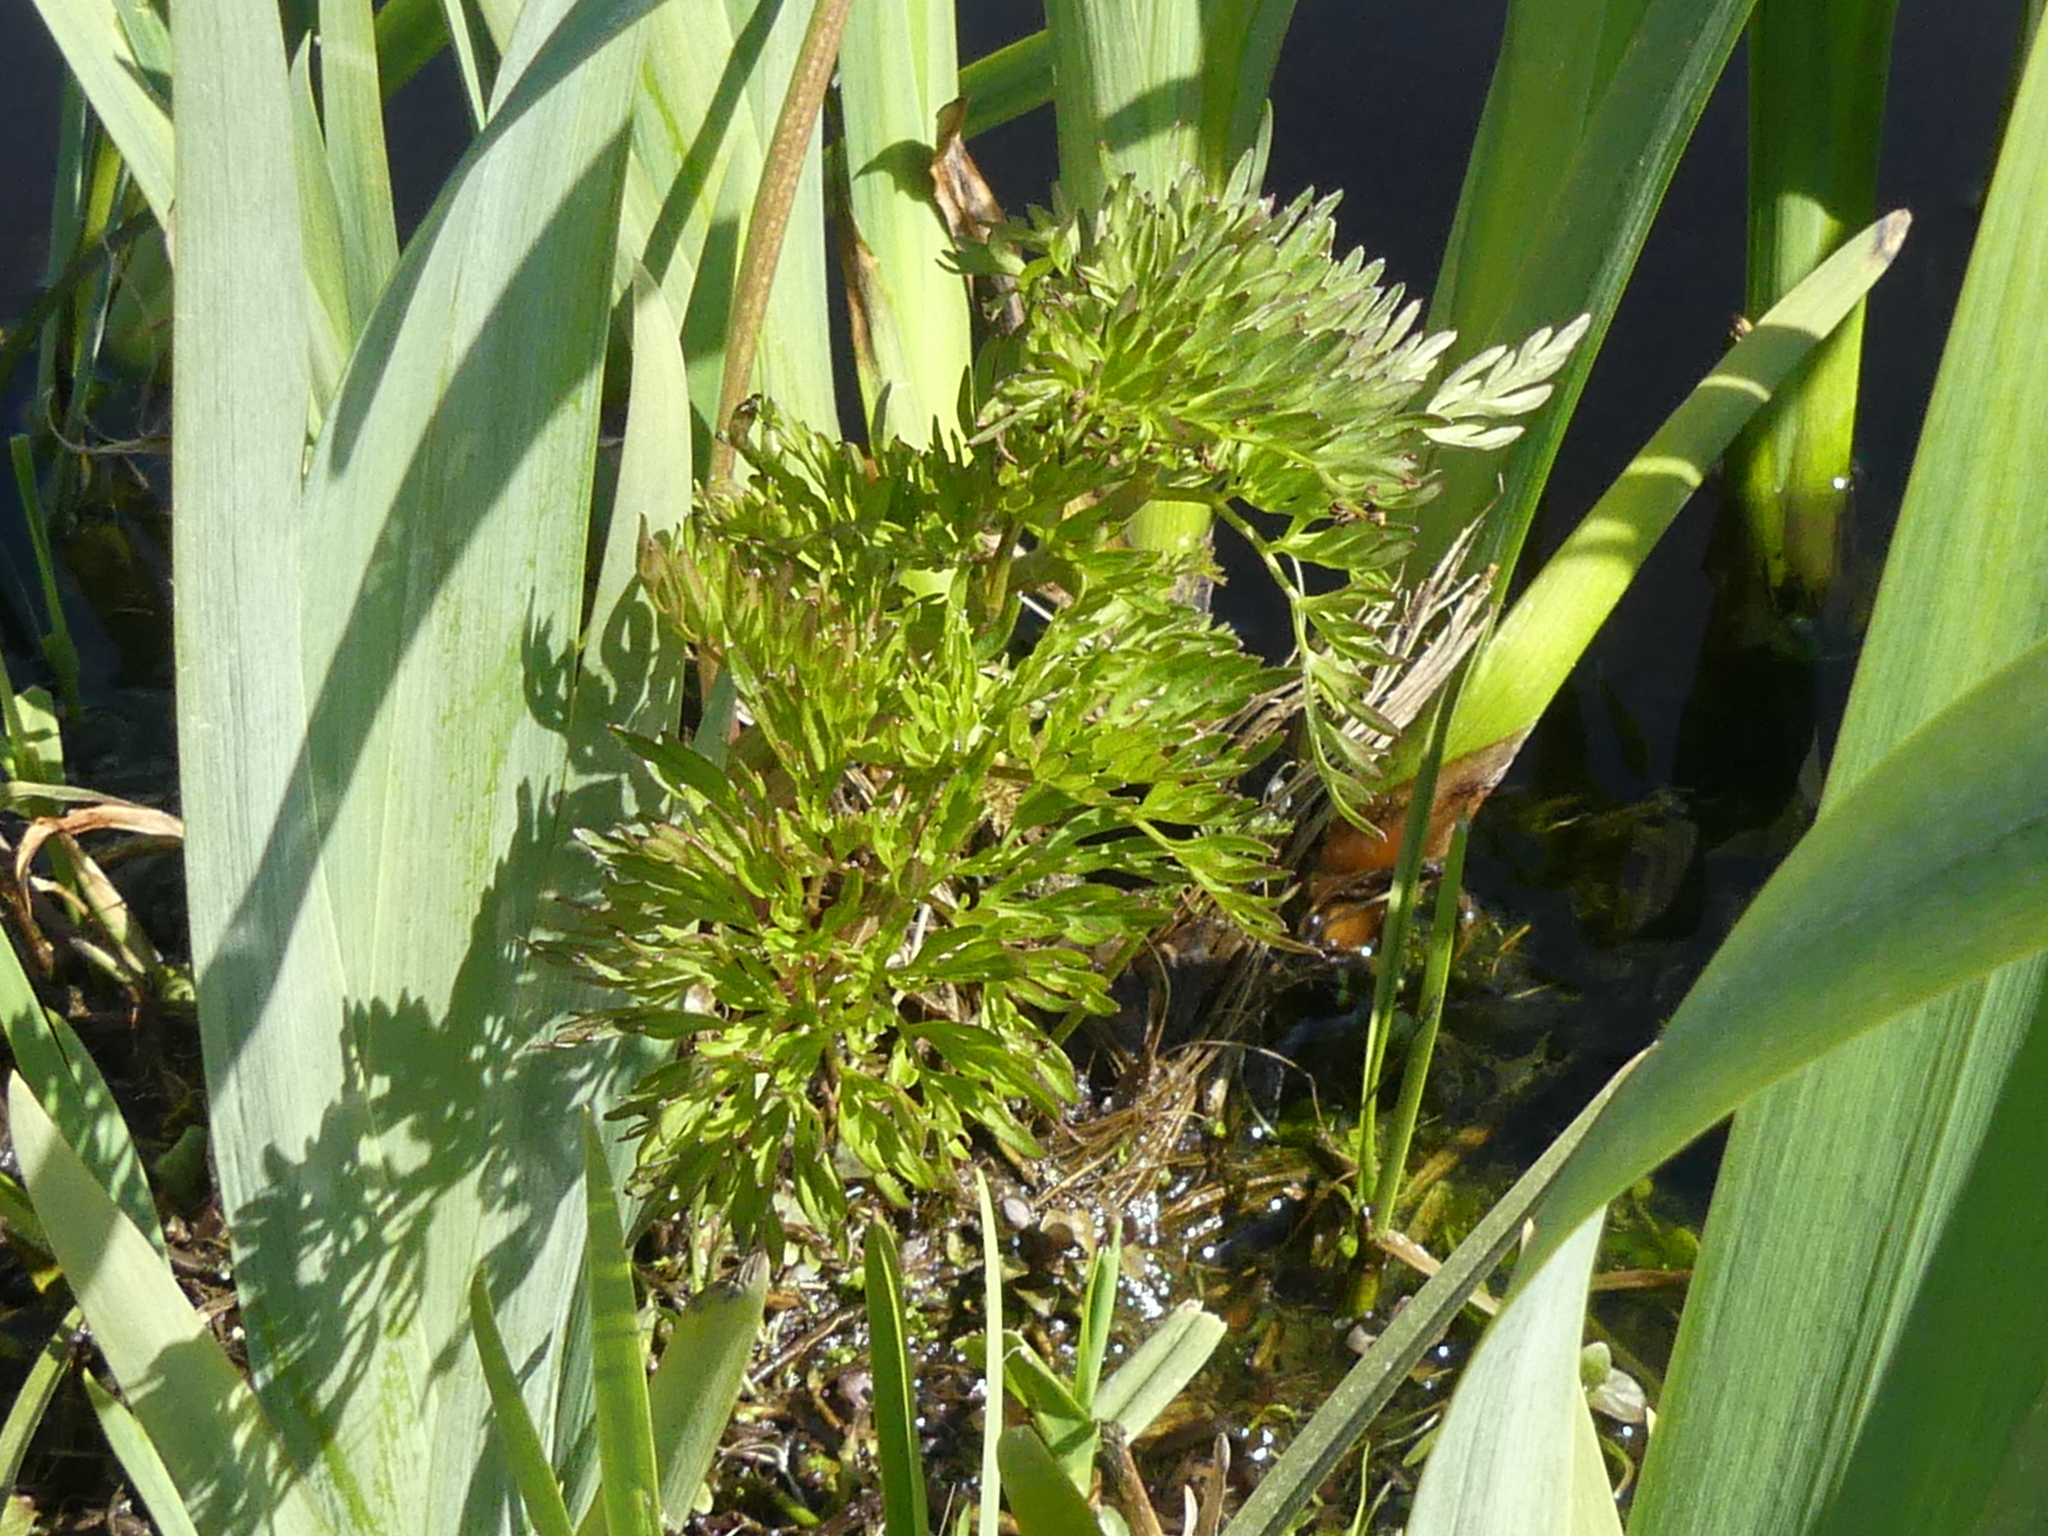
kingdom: Plantae
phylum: Tracheophyta
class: Magnoliopsida
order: Apiales
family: Apiaceae
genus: Oenanthe
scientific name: Oenanthe aquatica
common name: Fine-leaved water-dropwort
